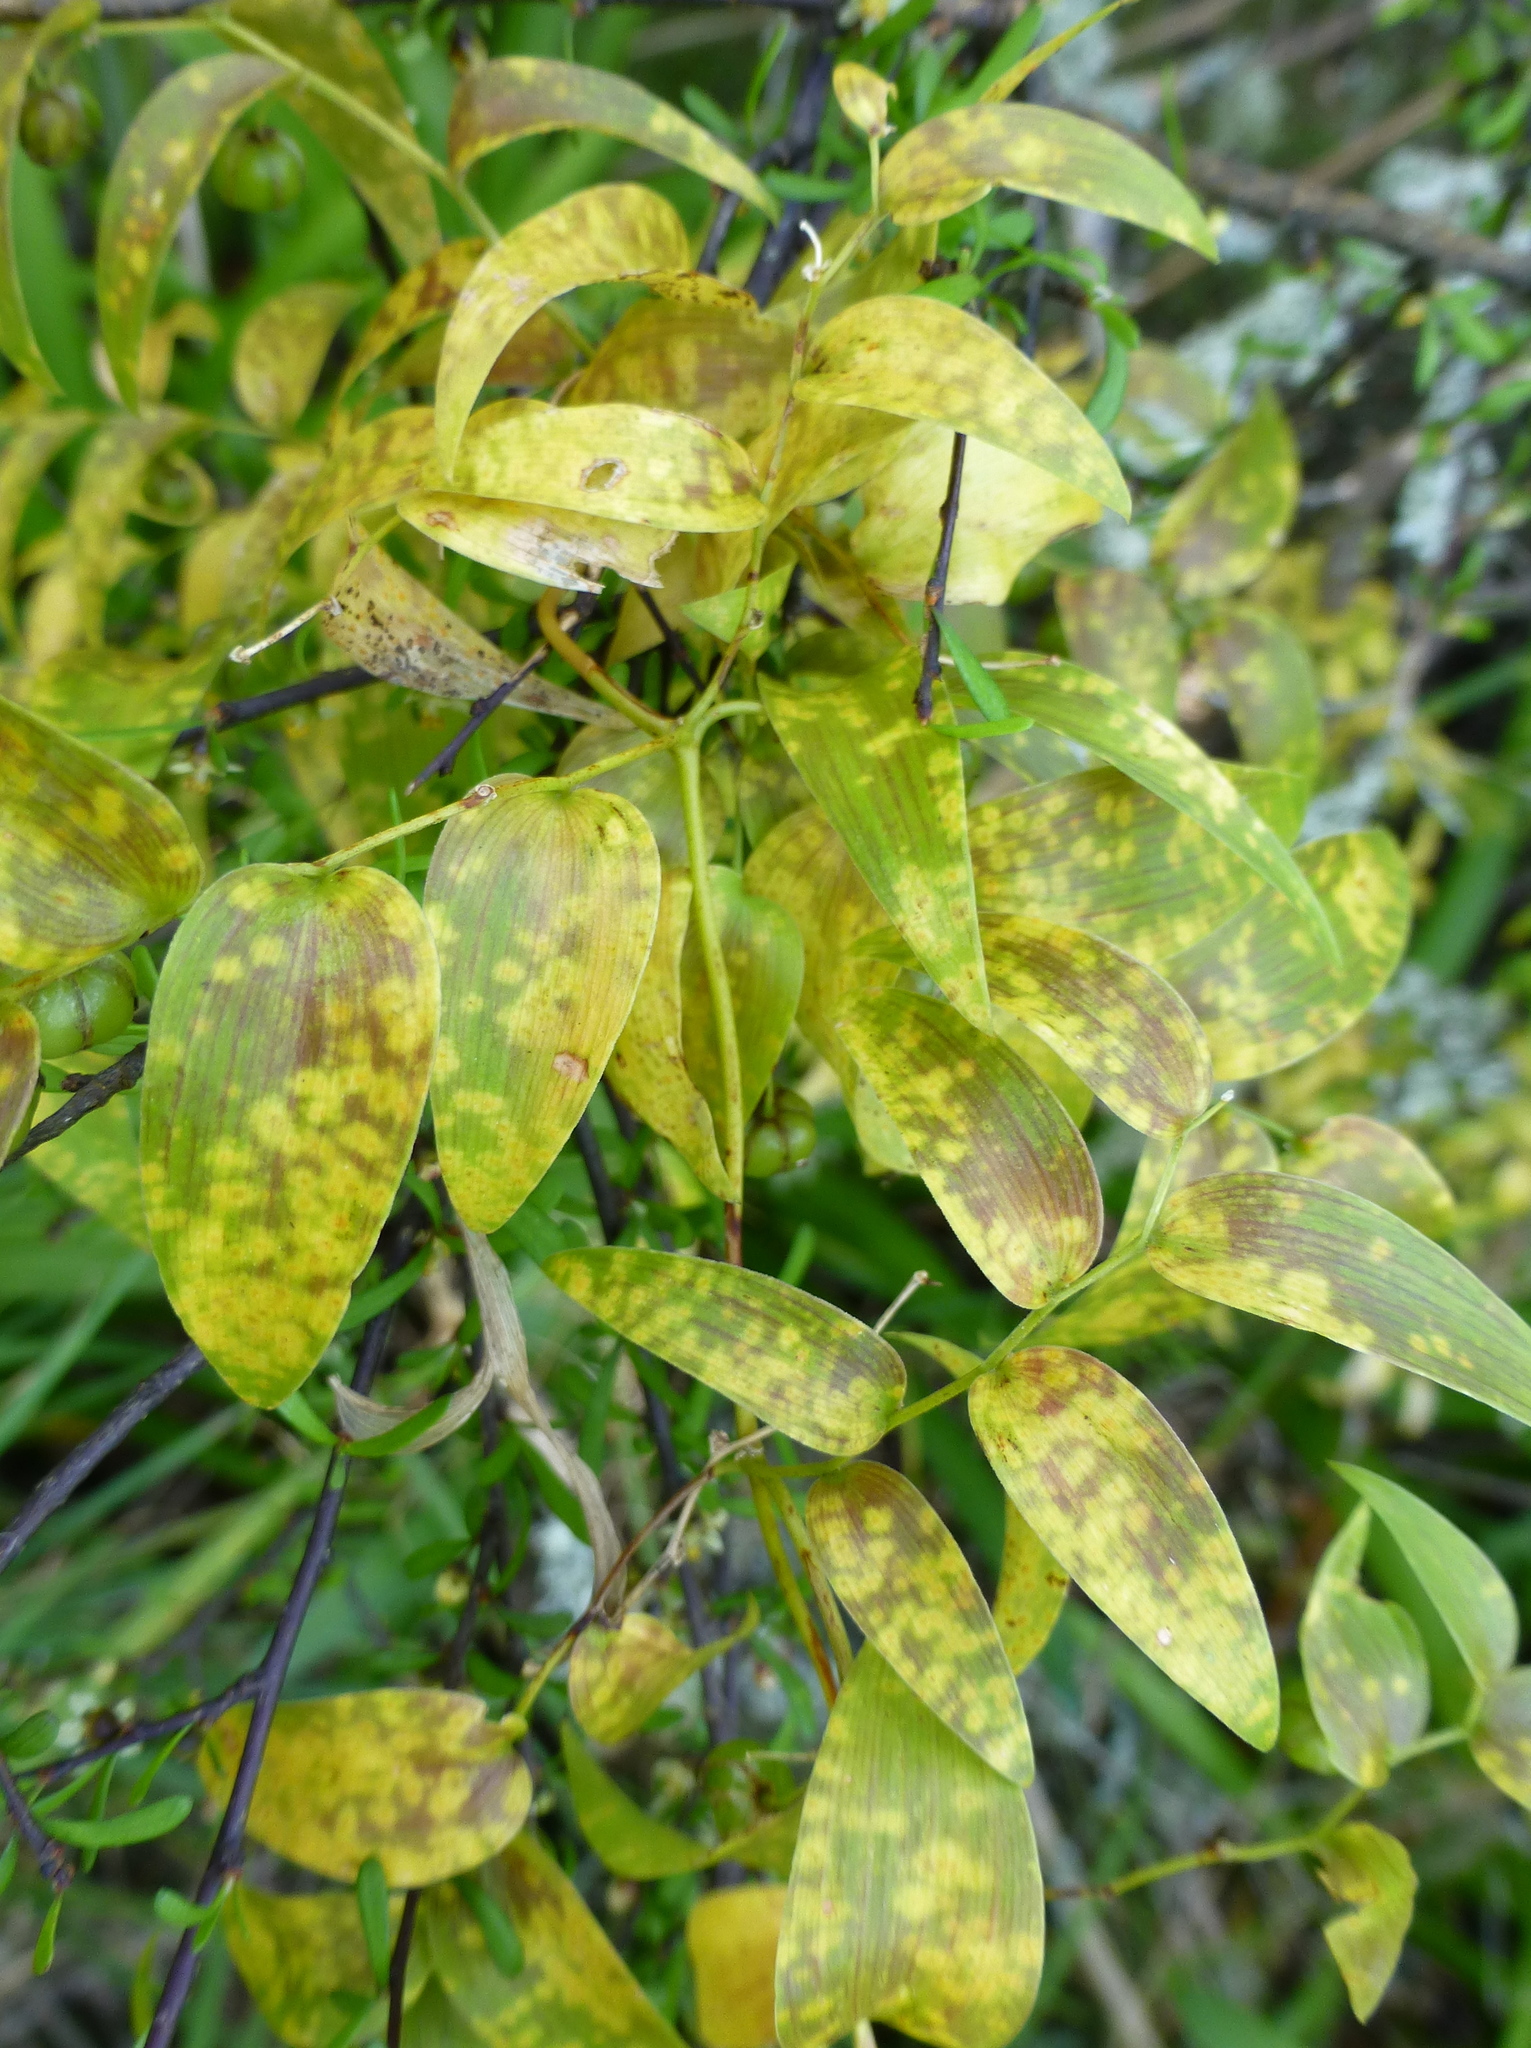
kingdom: Plantae
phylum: Tracheophyta
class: Liliopsida
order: Asparagales
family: Asparagaceae
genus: Asparagus
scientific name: Asparagus asparagoides
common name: African asparagus fern
